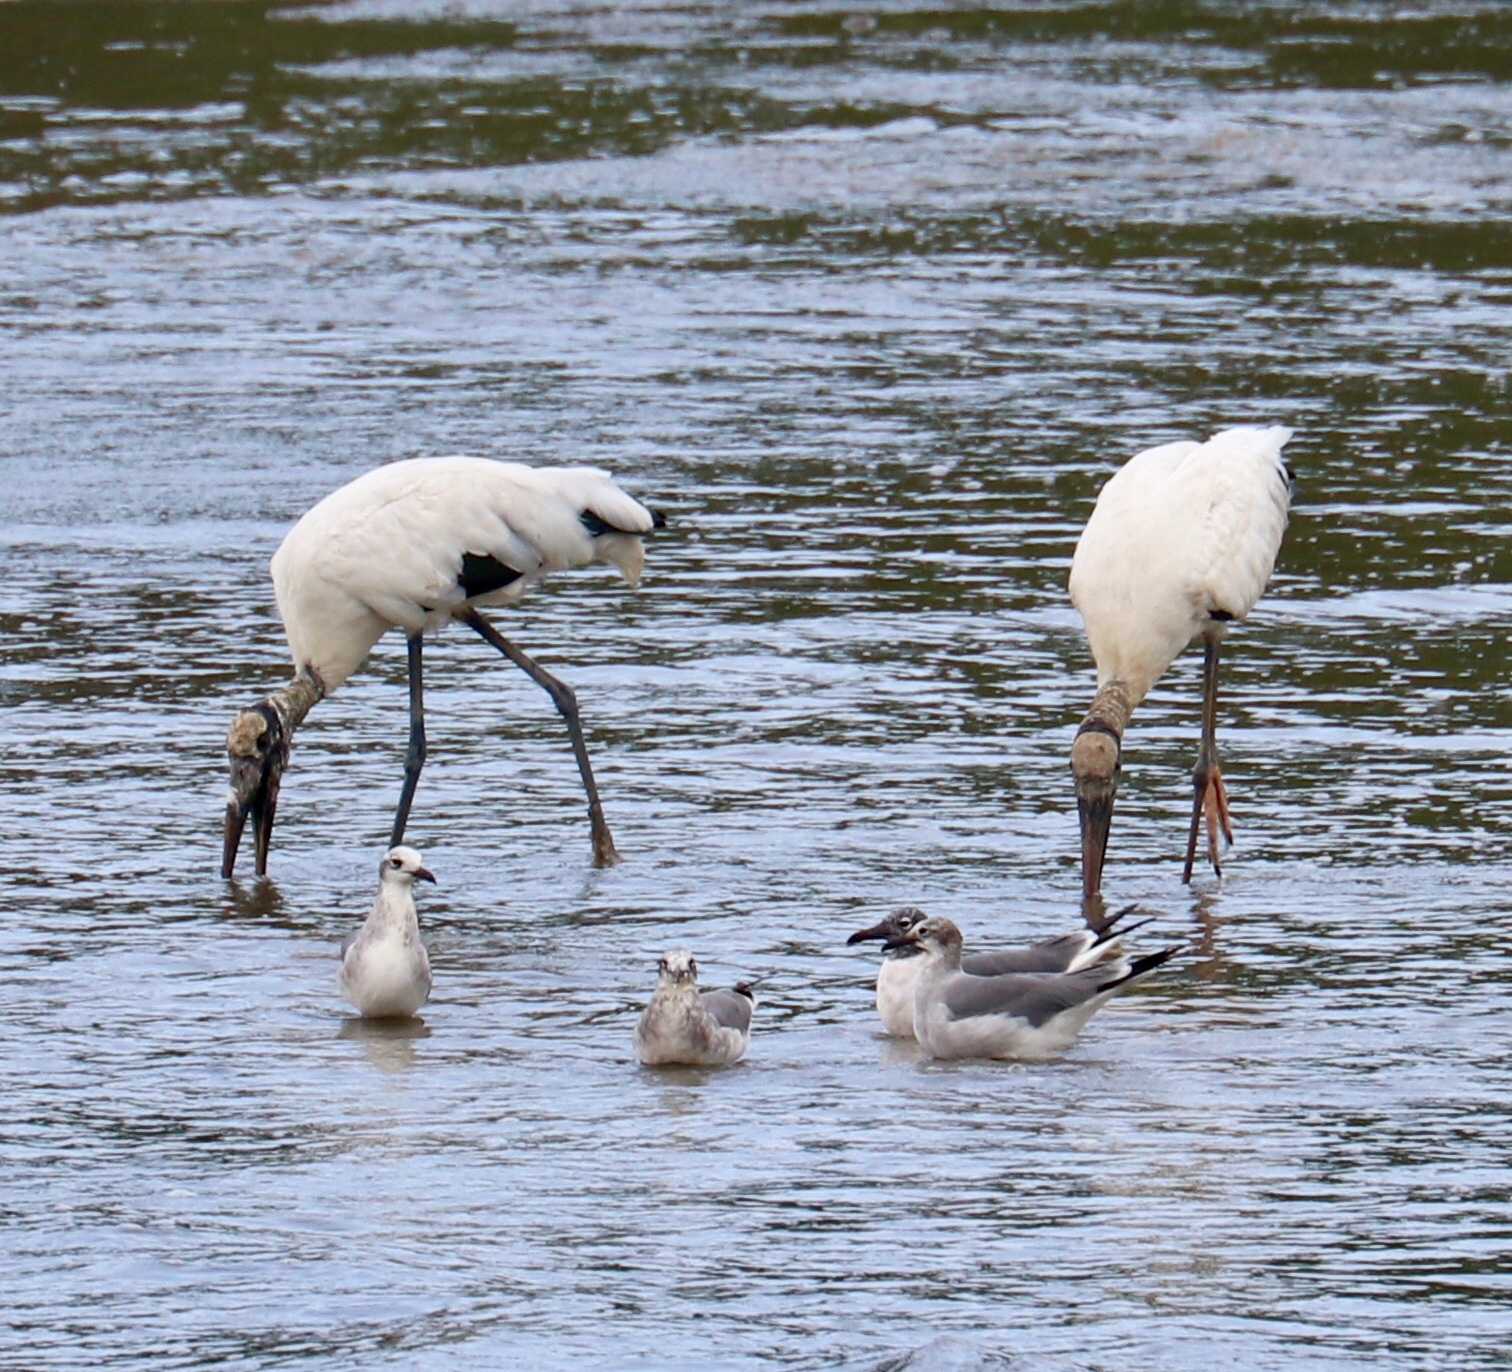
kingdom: Animalia
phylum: Chordata
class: Aves
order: Ciconiiformes
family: Ciconiidae
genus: Mycteria
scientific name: Mycteria americana
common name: Wood stork
